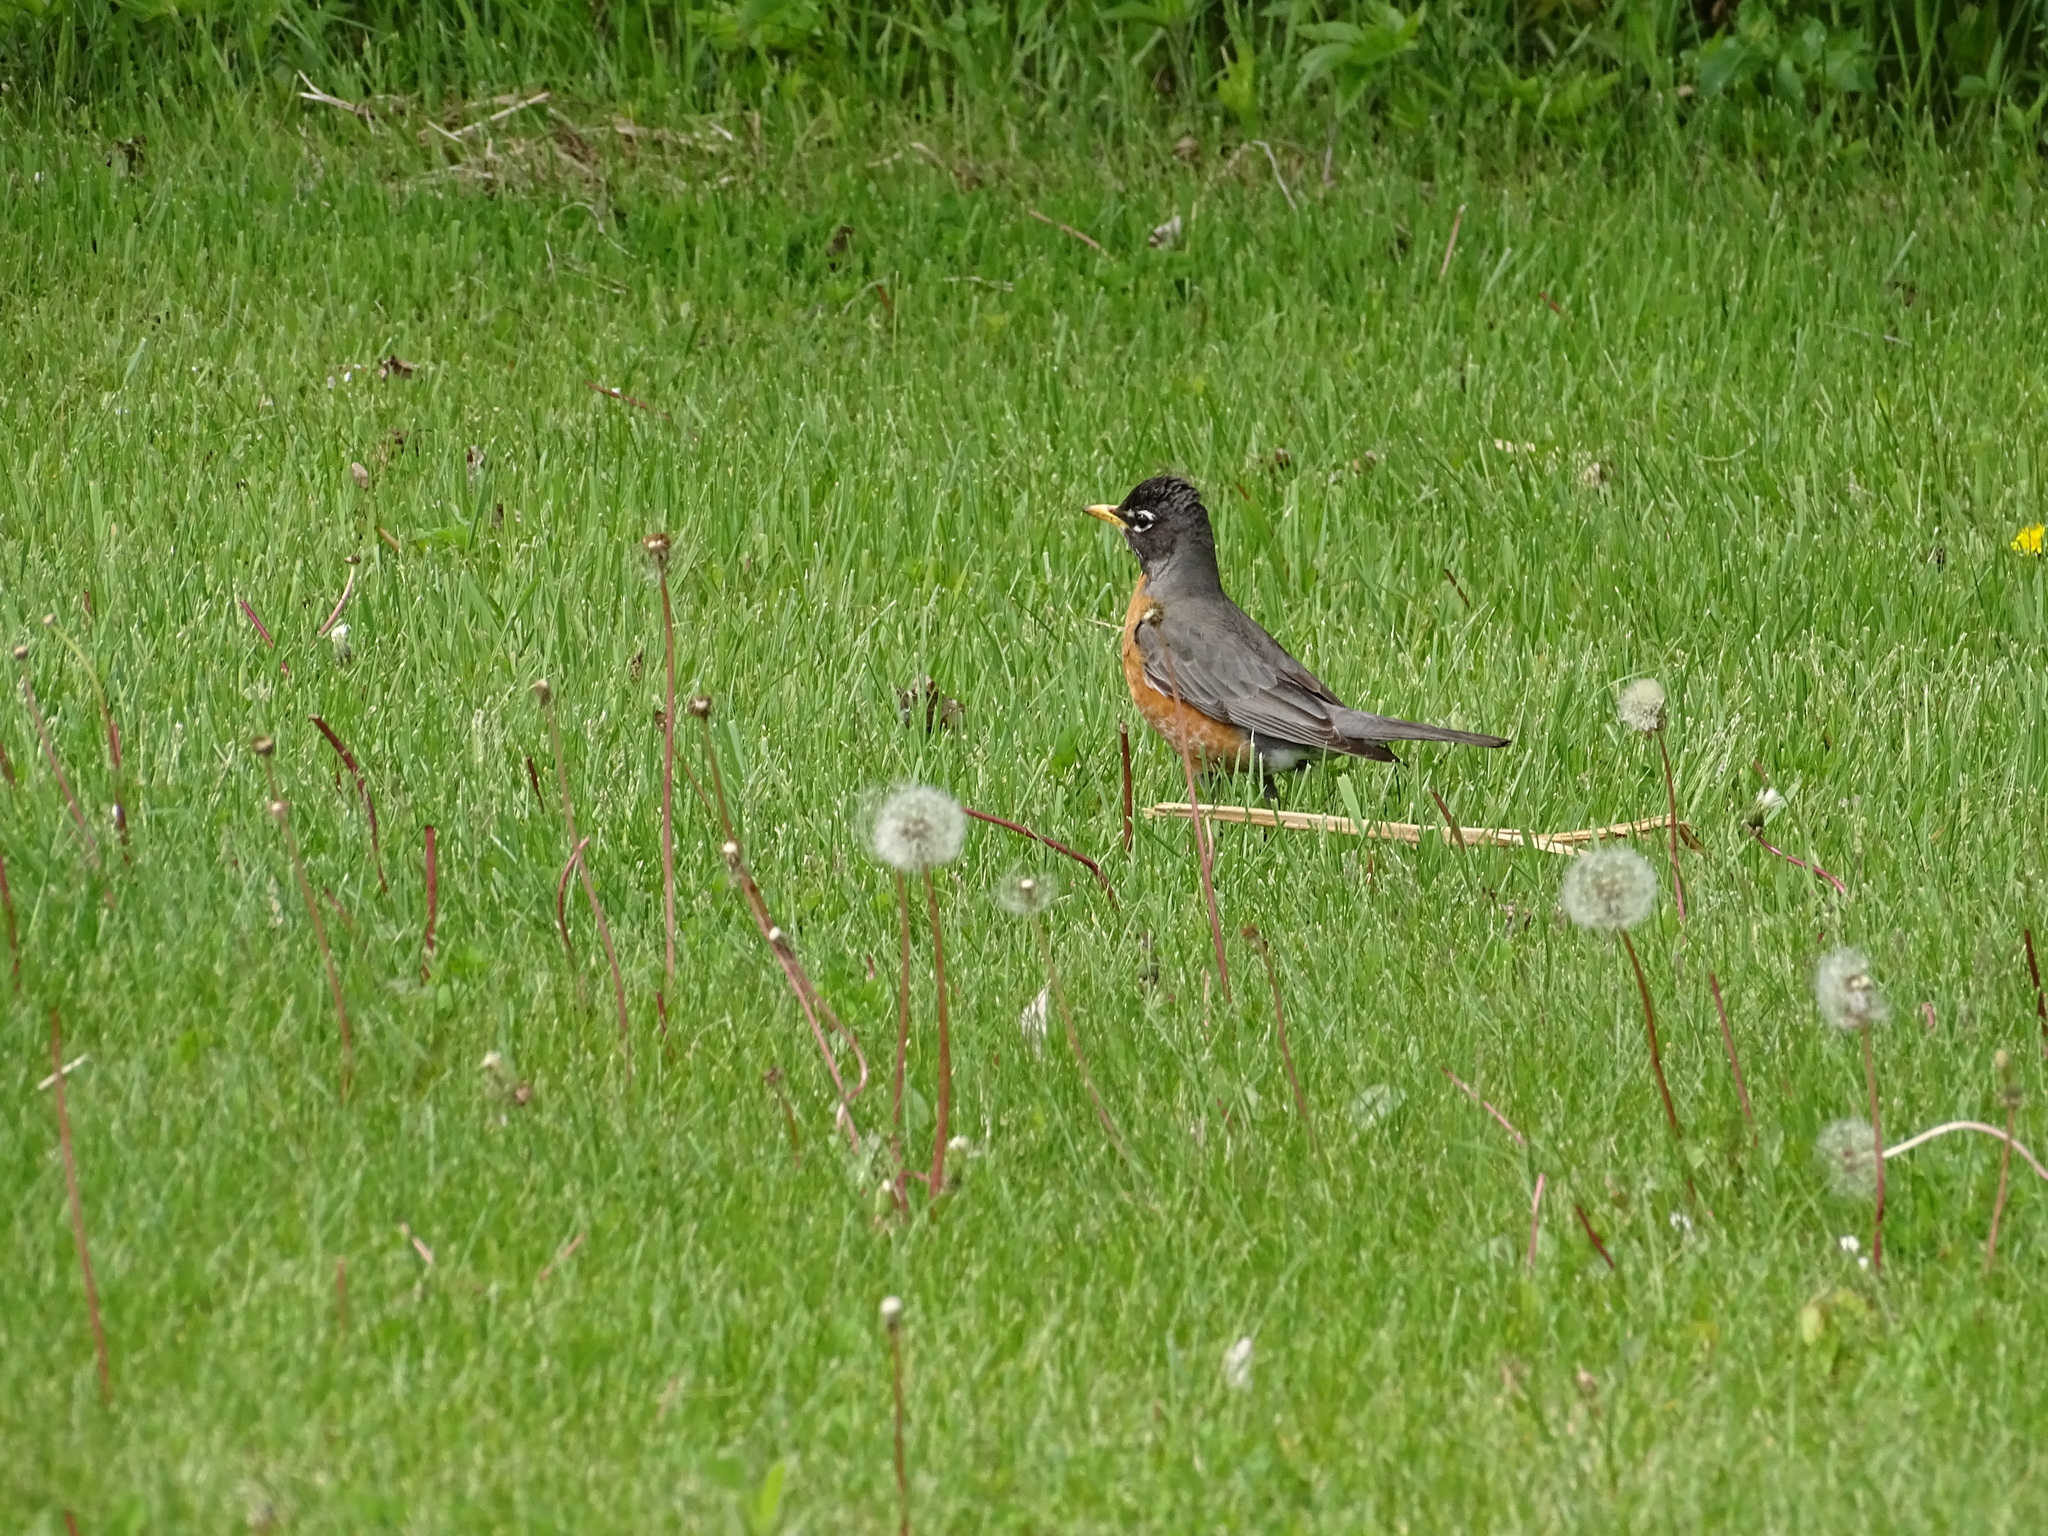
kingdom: Animalia
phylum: Chordata
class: Aves
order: Passeriformes
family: Turdidae
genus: Turdus
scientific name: Turdus migratorius
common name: American robin
